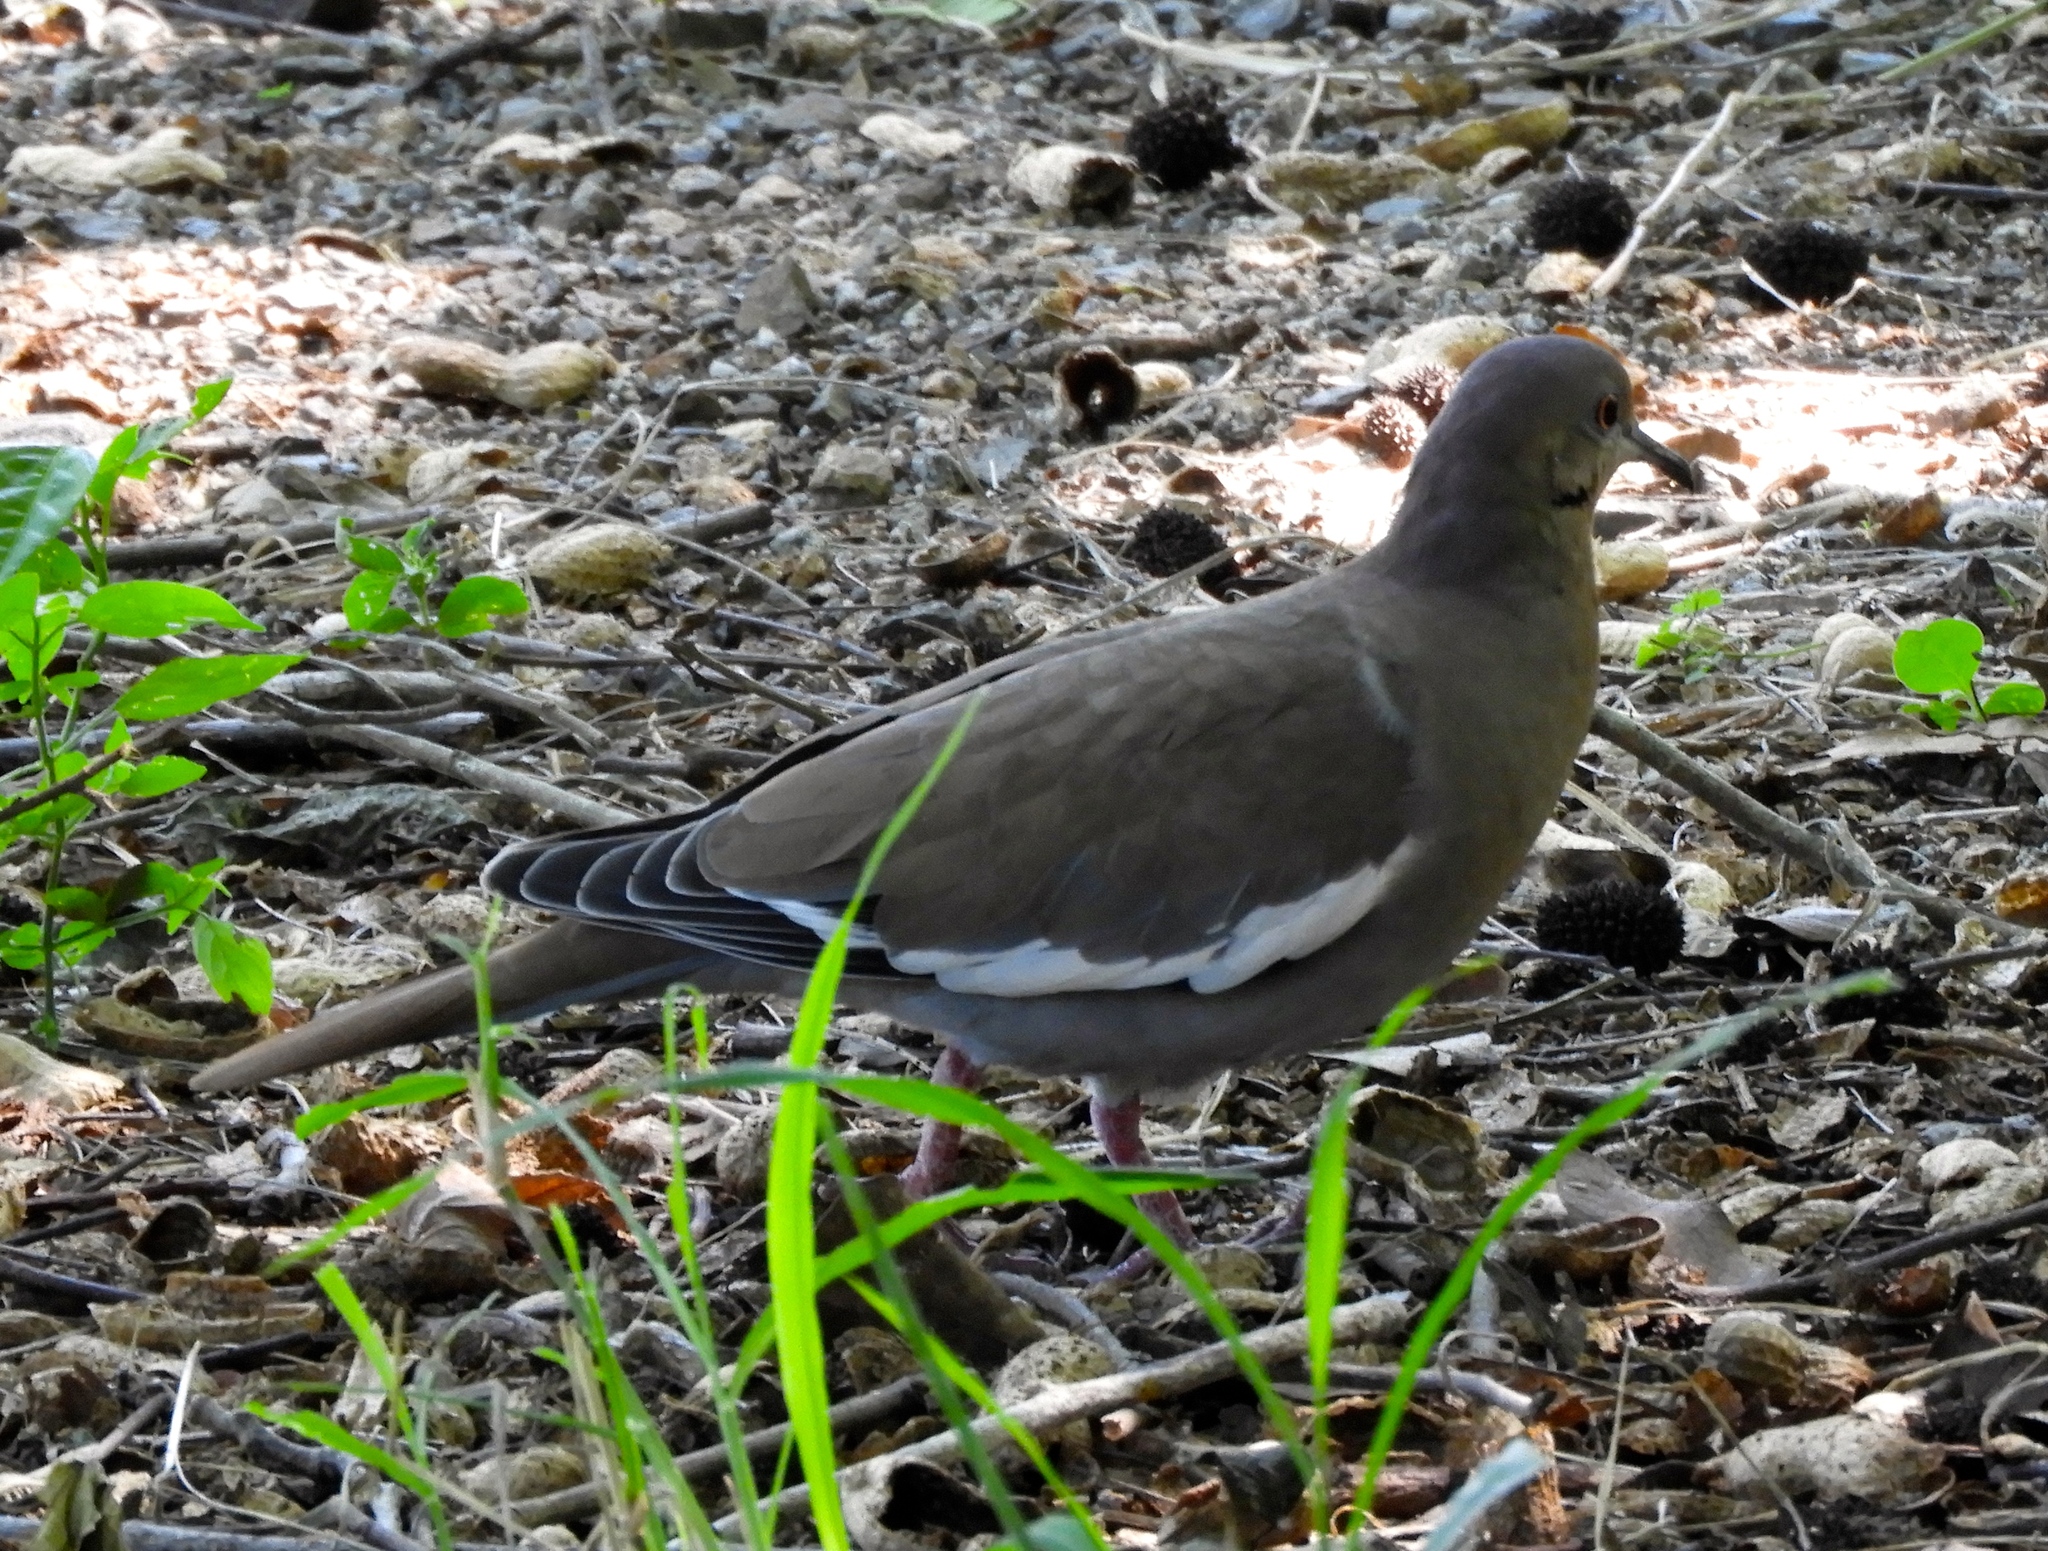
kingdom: Animalia
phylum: Chordata
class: Aves
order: Columbiformes
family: Columbidae
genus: Zenaida
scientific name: Zenaida asiatica
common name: White-winged dove
